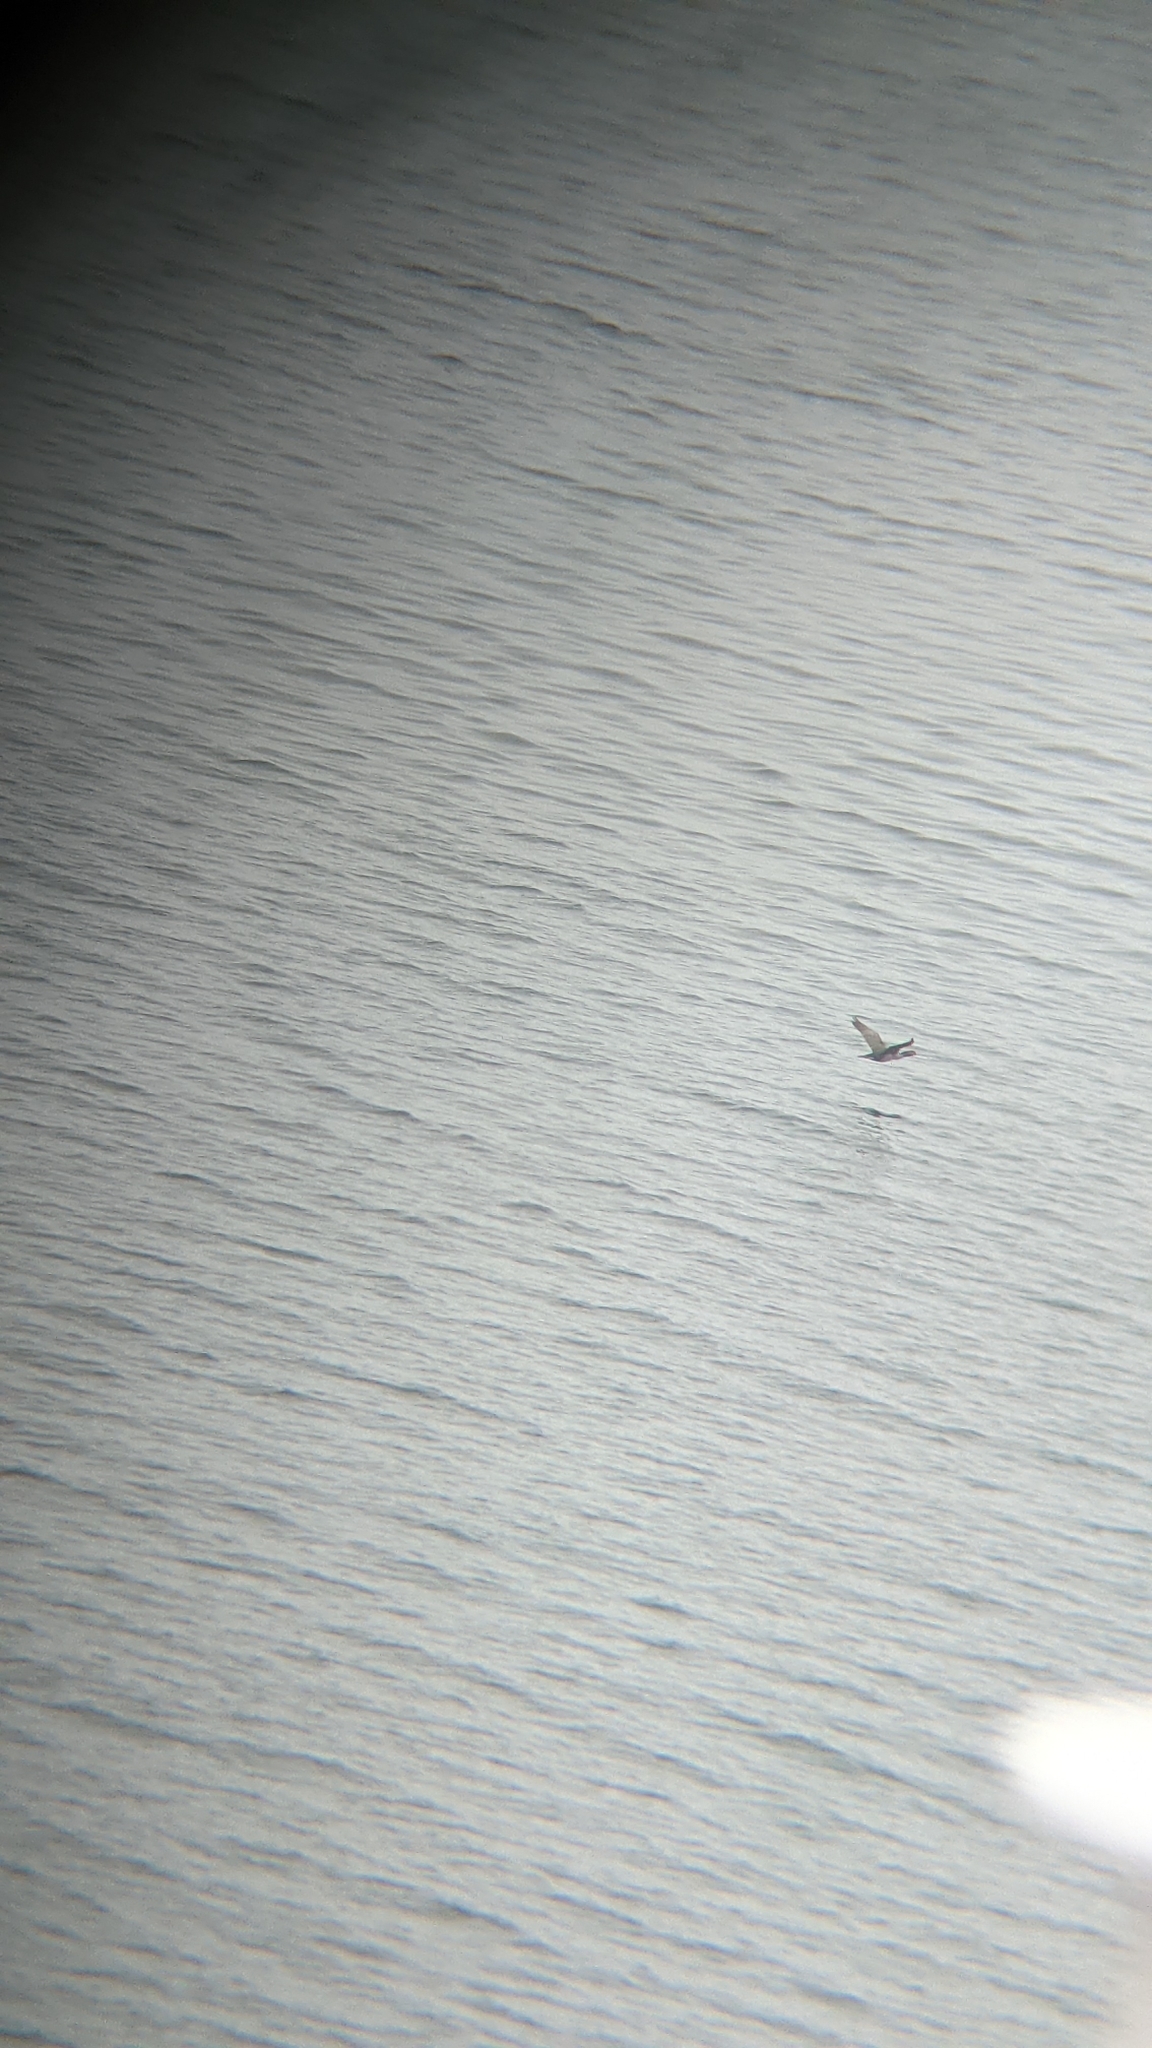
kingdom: Animalia
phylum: Chordata
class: Aves
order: Suliformes
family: Phalacrocoracidae
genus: Phalacrocorax
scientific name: Phalacrocorax punctatus
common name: Spotted shag
